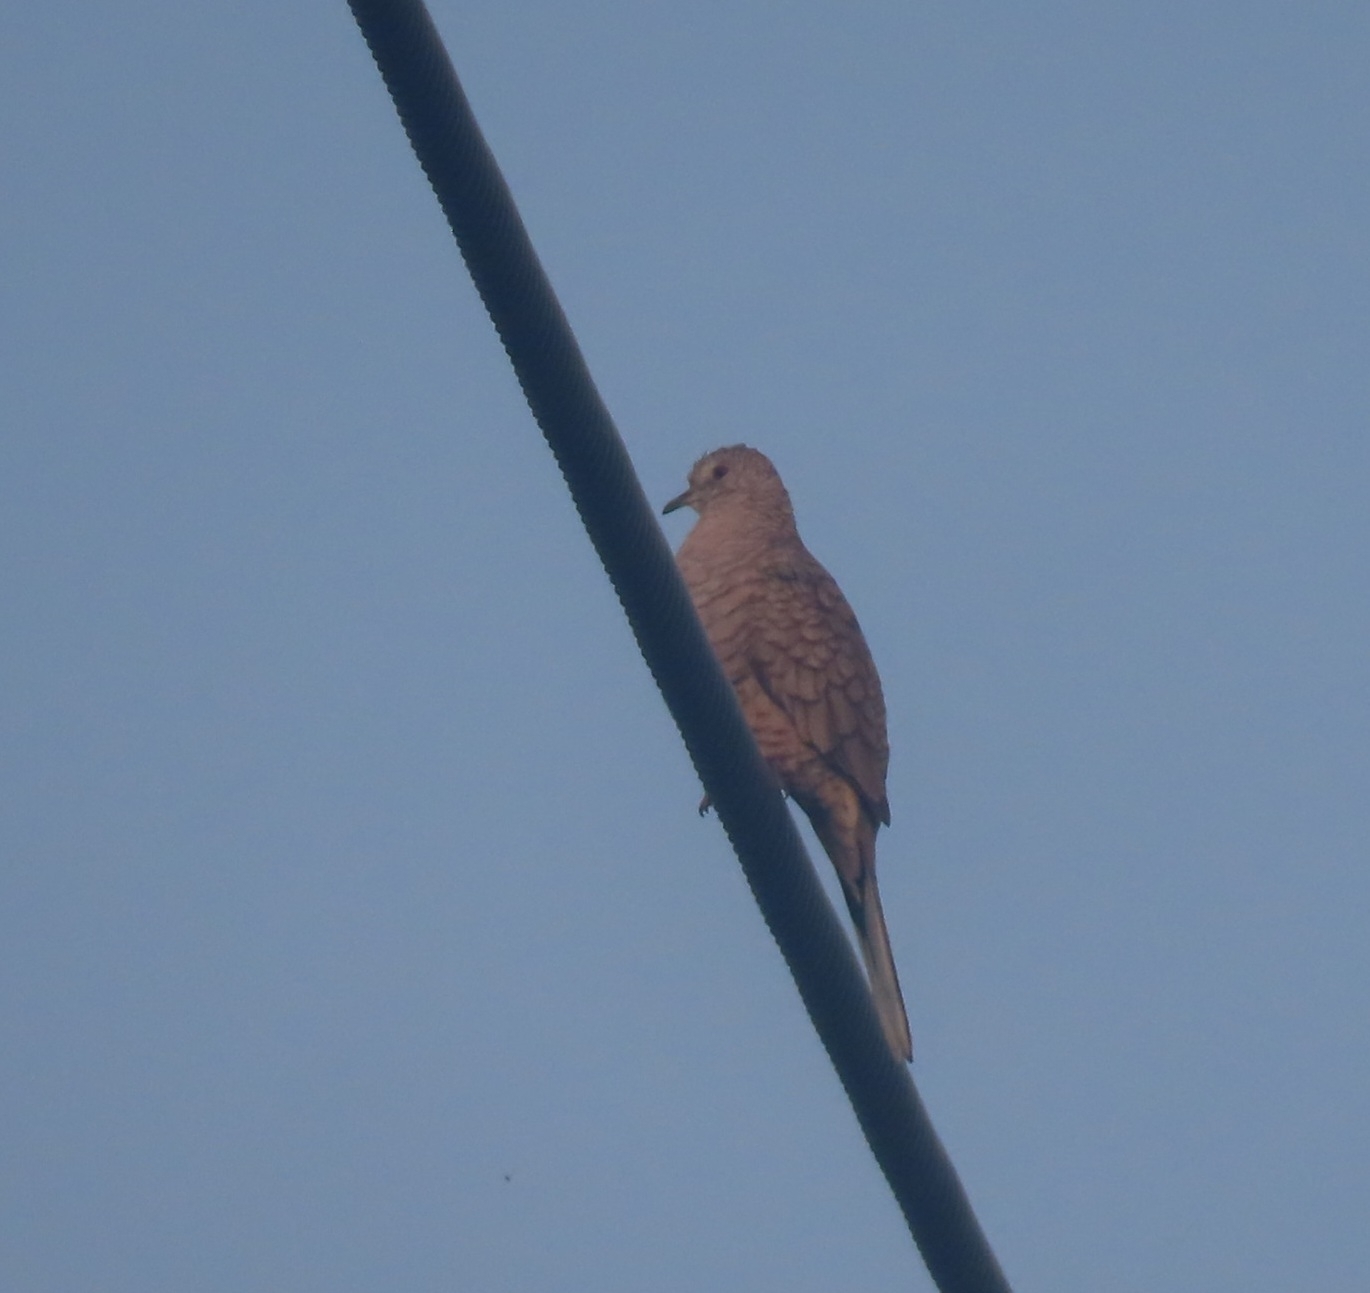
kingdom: Animalia
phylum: Chordata
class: Aves
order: Columbiformes
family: Columbidae
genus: Columbina
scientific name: Columbina inca
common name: Inca dove
